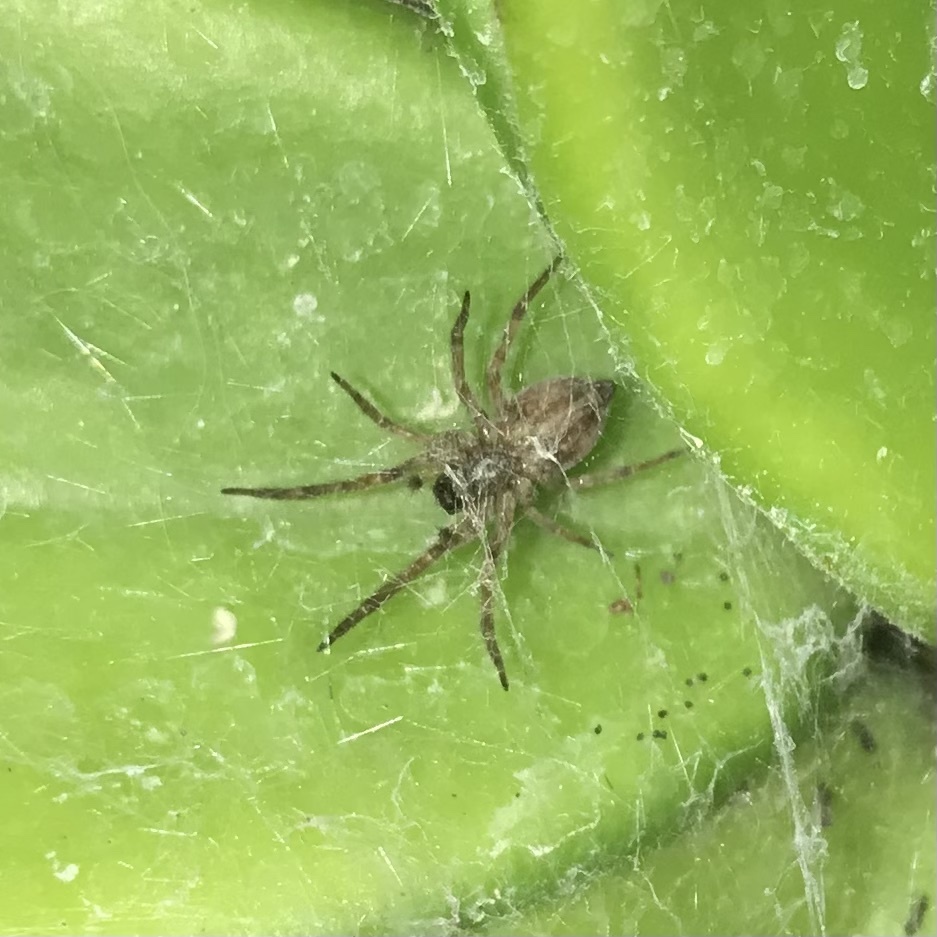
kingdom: Animalia
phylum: Arthropoda
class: Arachnida
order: Araneae
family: Desidae
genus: Badumna
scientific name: Badumna longinqua
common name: Gray house spider
